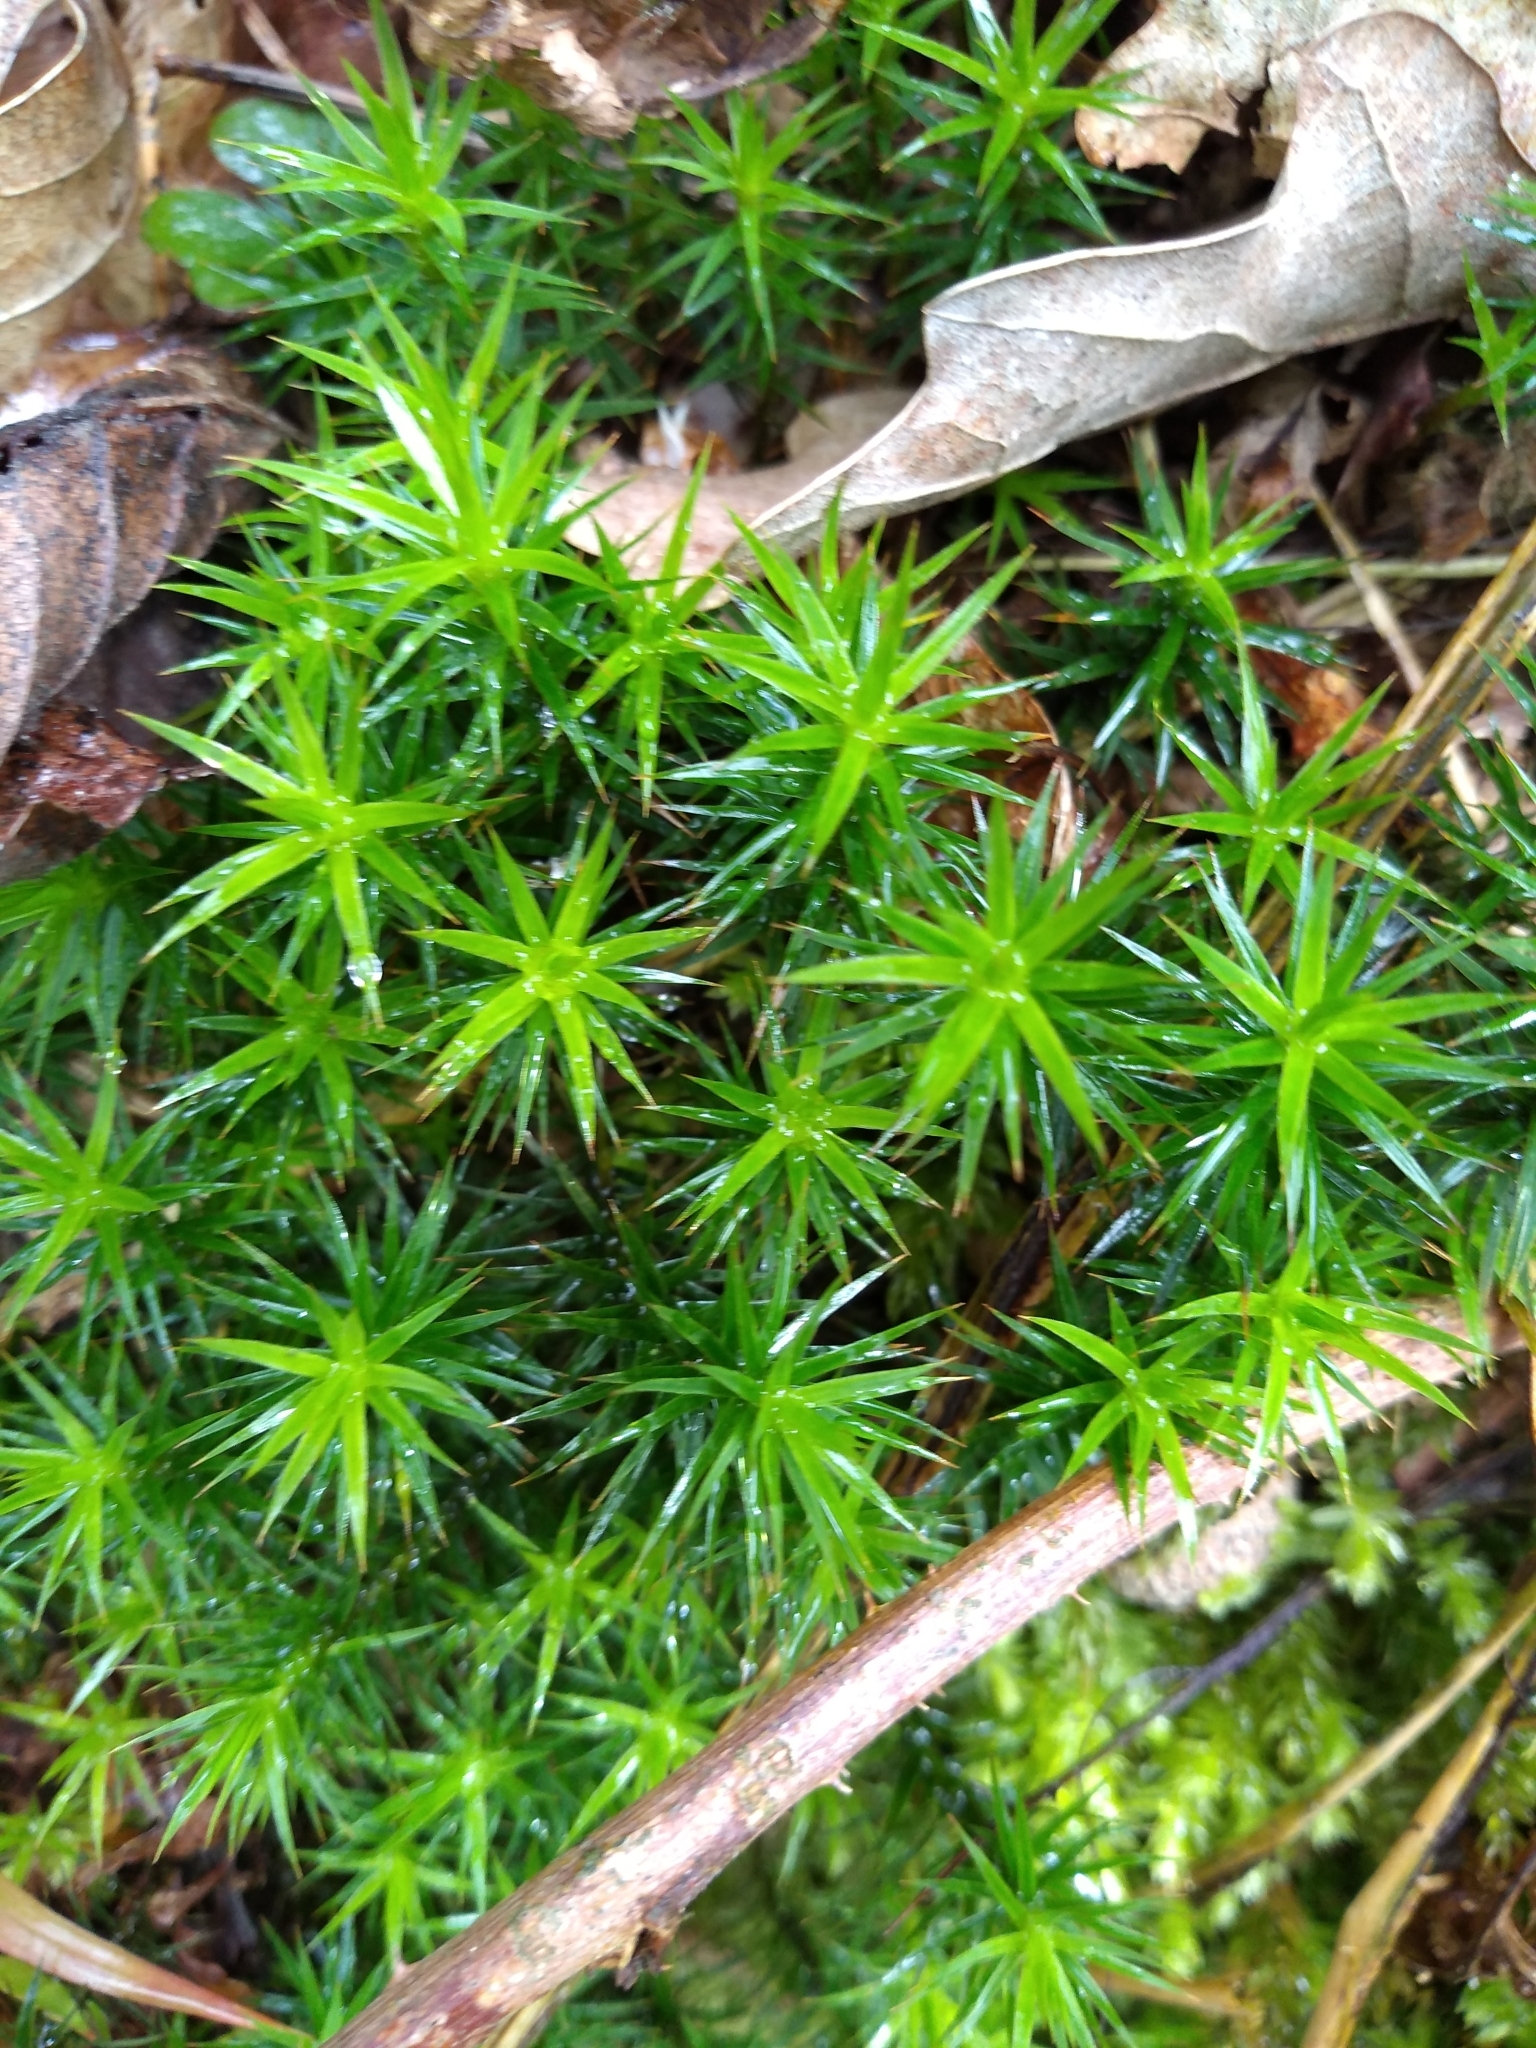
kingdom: Plantae
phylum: Bryophyta
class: Polytrichopsida
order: Polytrichales
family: Polytrichaceae
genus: Polytrichum
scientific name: Polytrichum commune
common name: Common haircap
